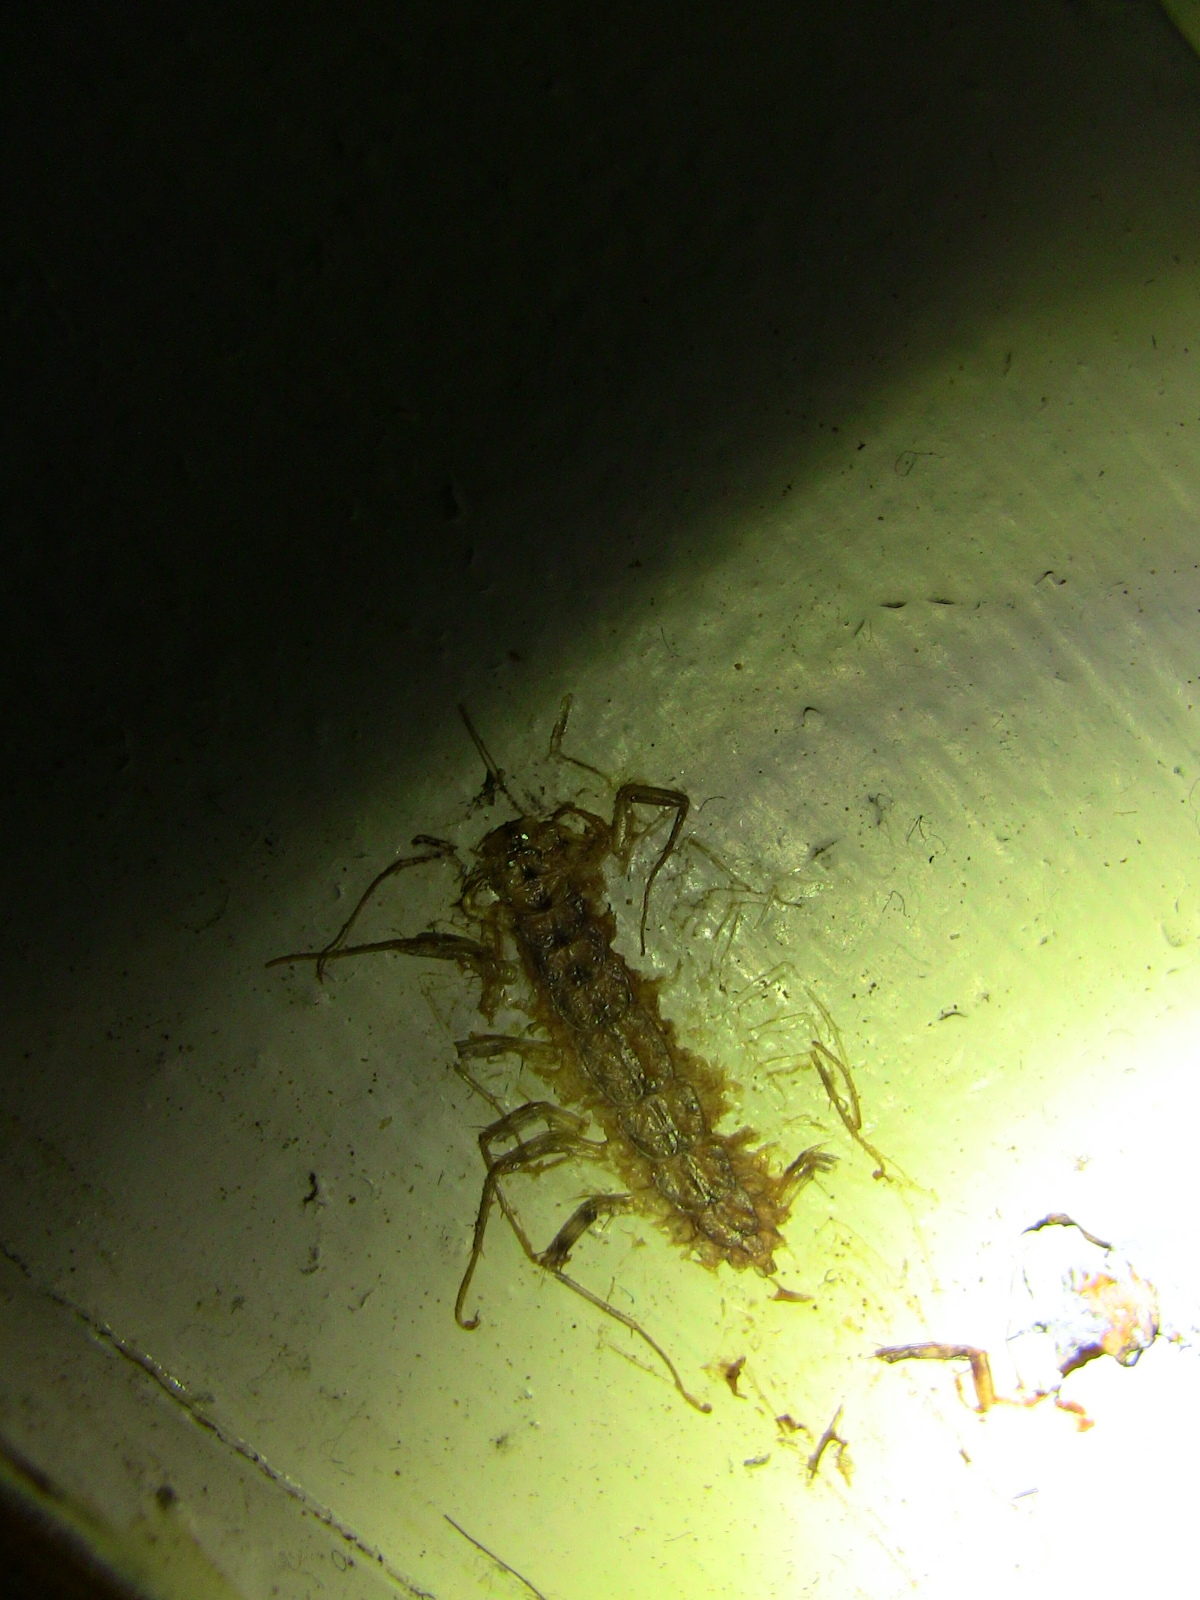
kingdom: Animalia
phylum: Arthropoda
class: Chilopoda
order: Scutigeromorpha
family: Scutigeridae
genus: Scutigera
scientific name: Scutigera coleoptrata
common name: House centipede
